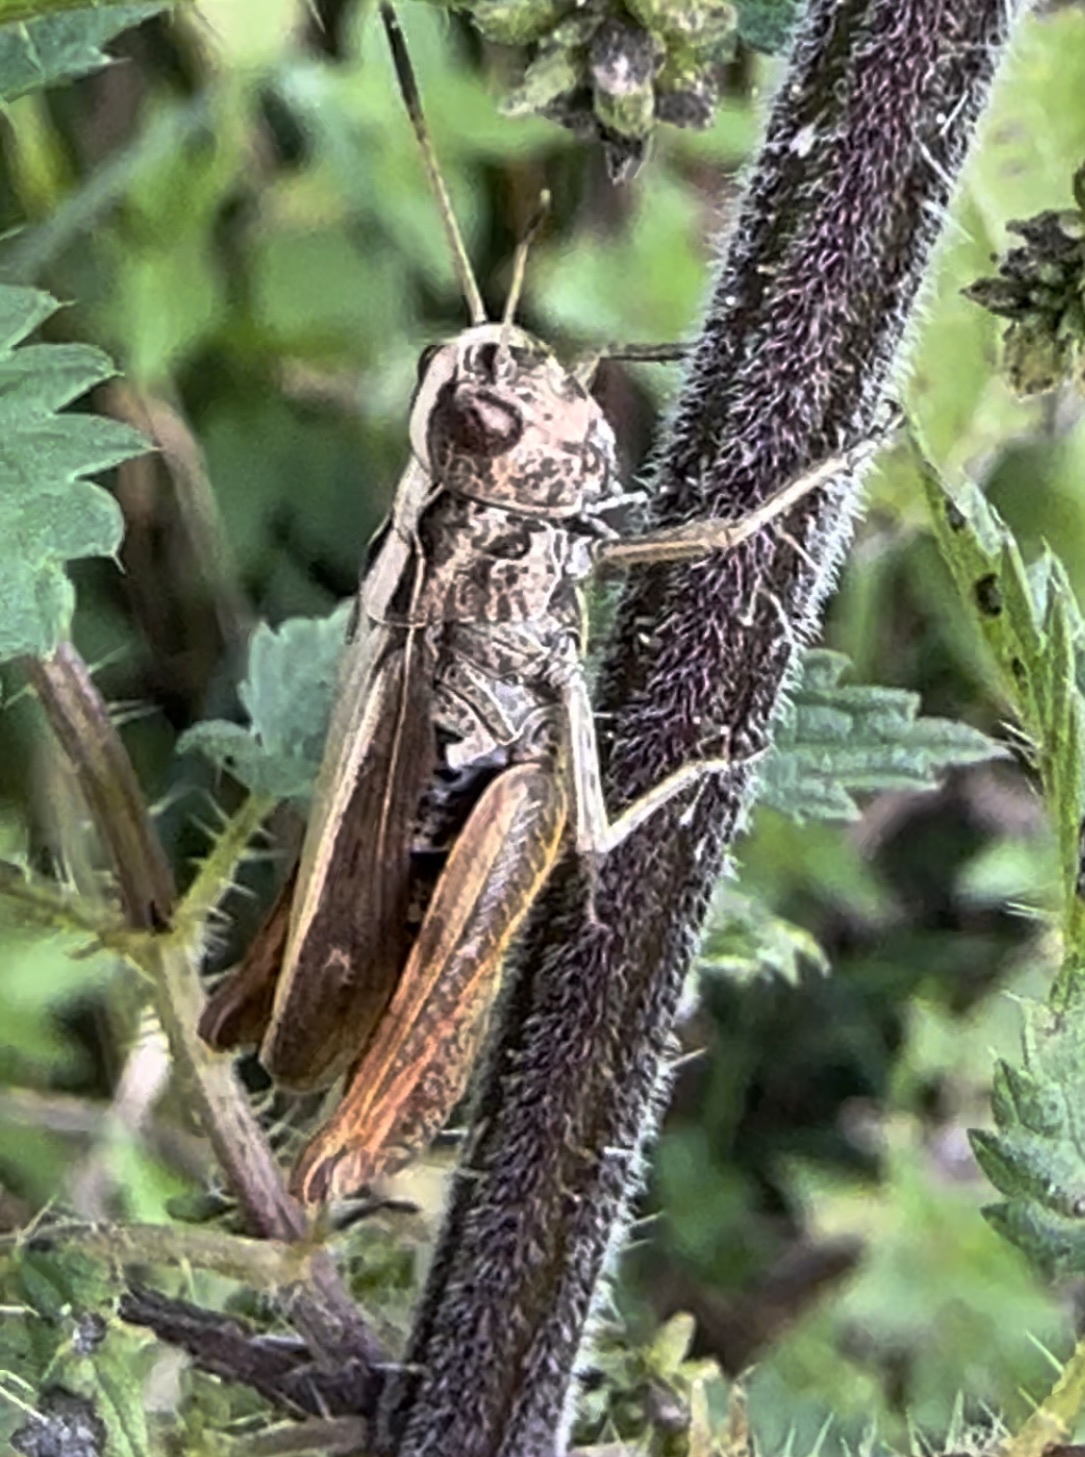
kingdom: Animalia
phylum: Arthropoda
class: Insecta
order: Orthoptera
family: Acrididae
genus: Gomphocerippus
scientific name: Gomphocerippus rufus
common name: Rufous grasshopper
